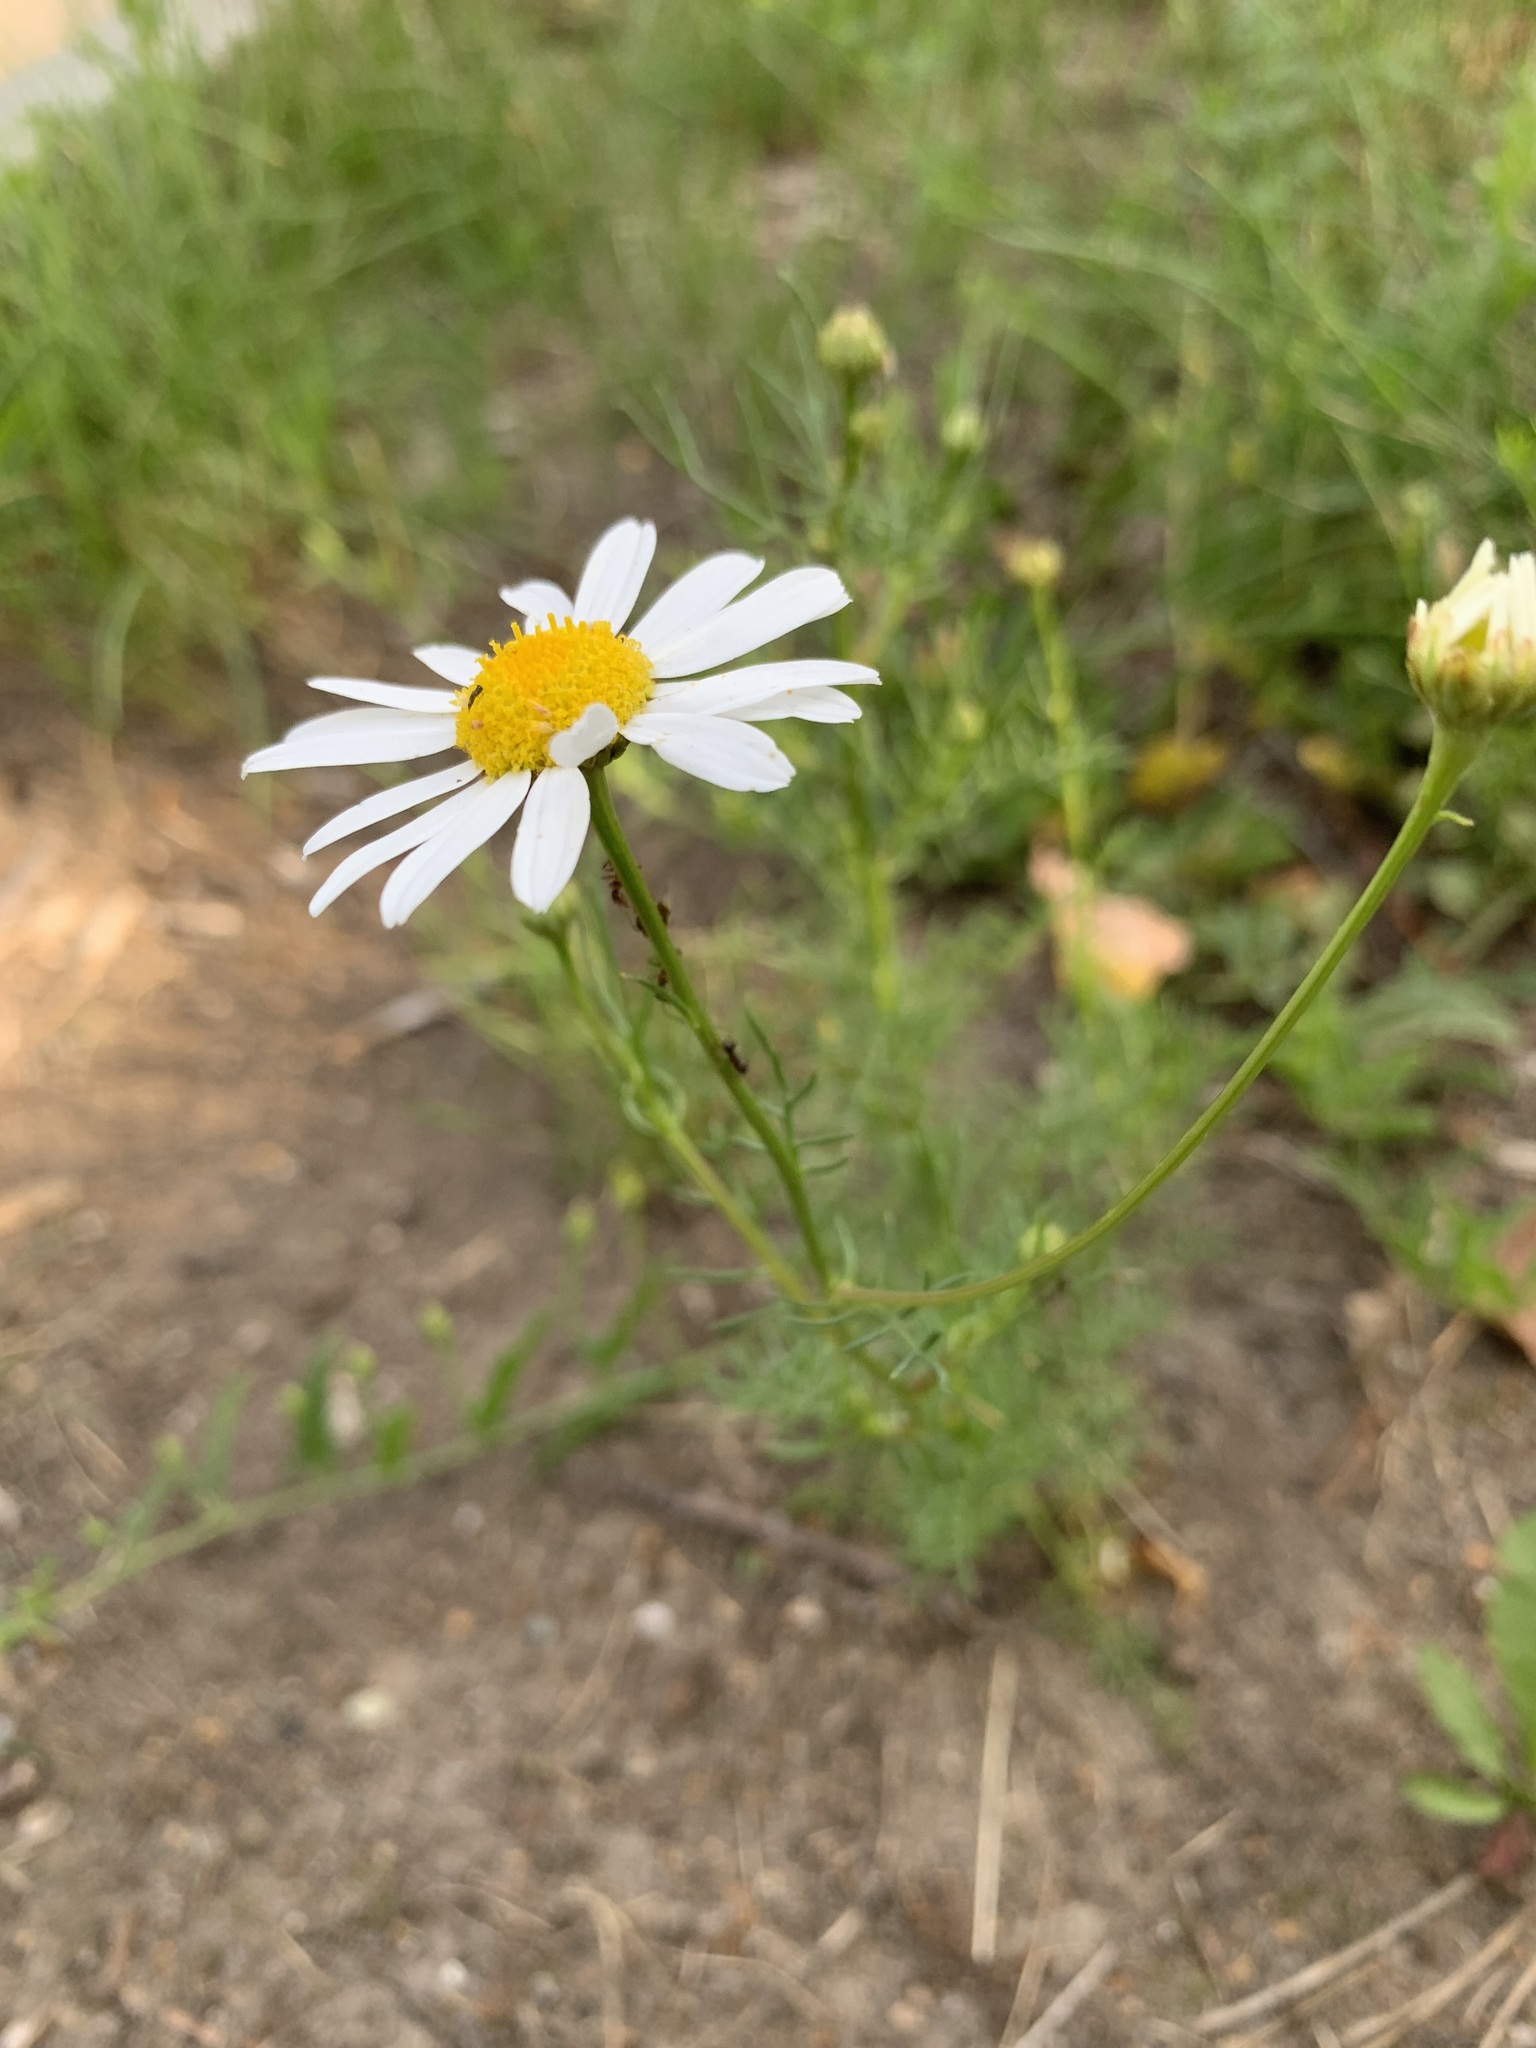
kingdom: Plantae
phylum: Tracheophyta
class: Magnoliopsida
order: Asterales
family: Asteraceae
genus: Tripleurospermum
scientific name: Tripleurospermum inodorum
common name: Scentless mayweed
